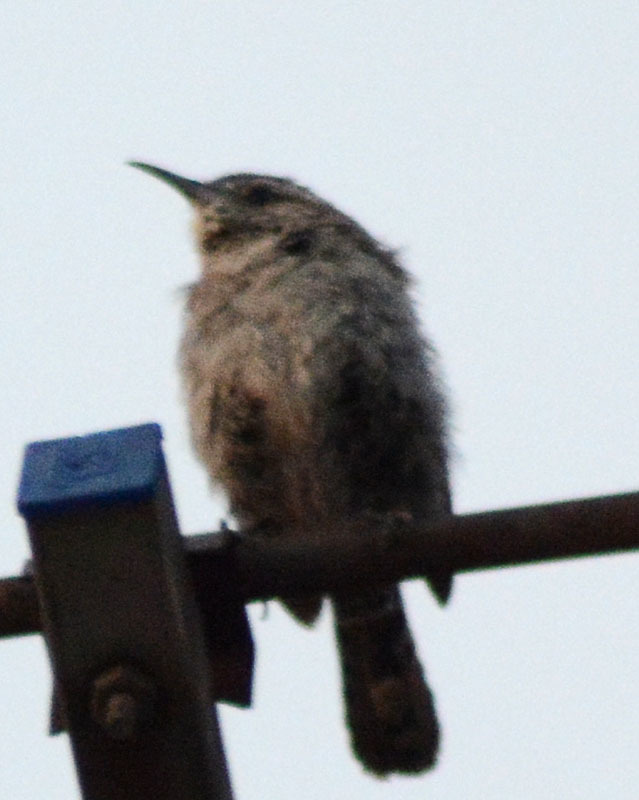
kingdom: Animalia
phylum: Chordata
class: Aves
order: Passeriformes
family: Troglodytidae
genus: Thryomanes
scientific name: Thryomanes bewickii
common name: Bewick's wren
